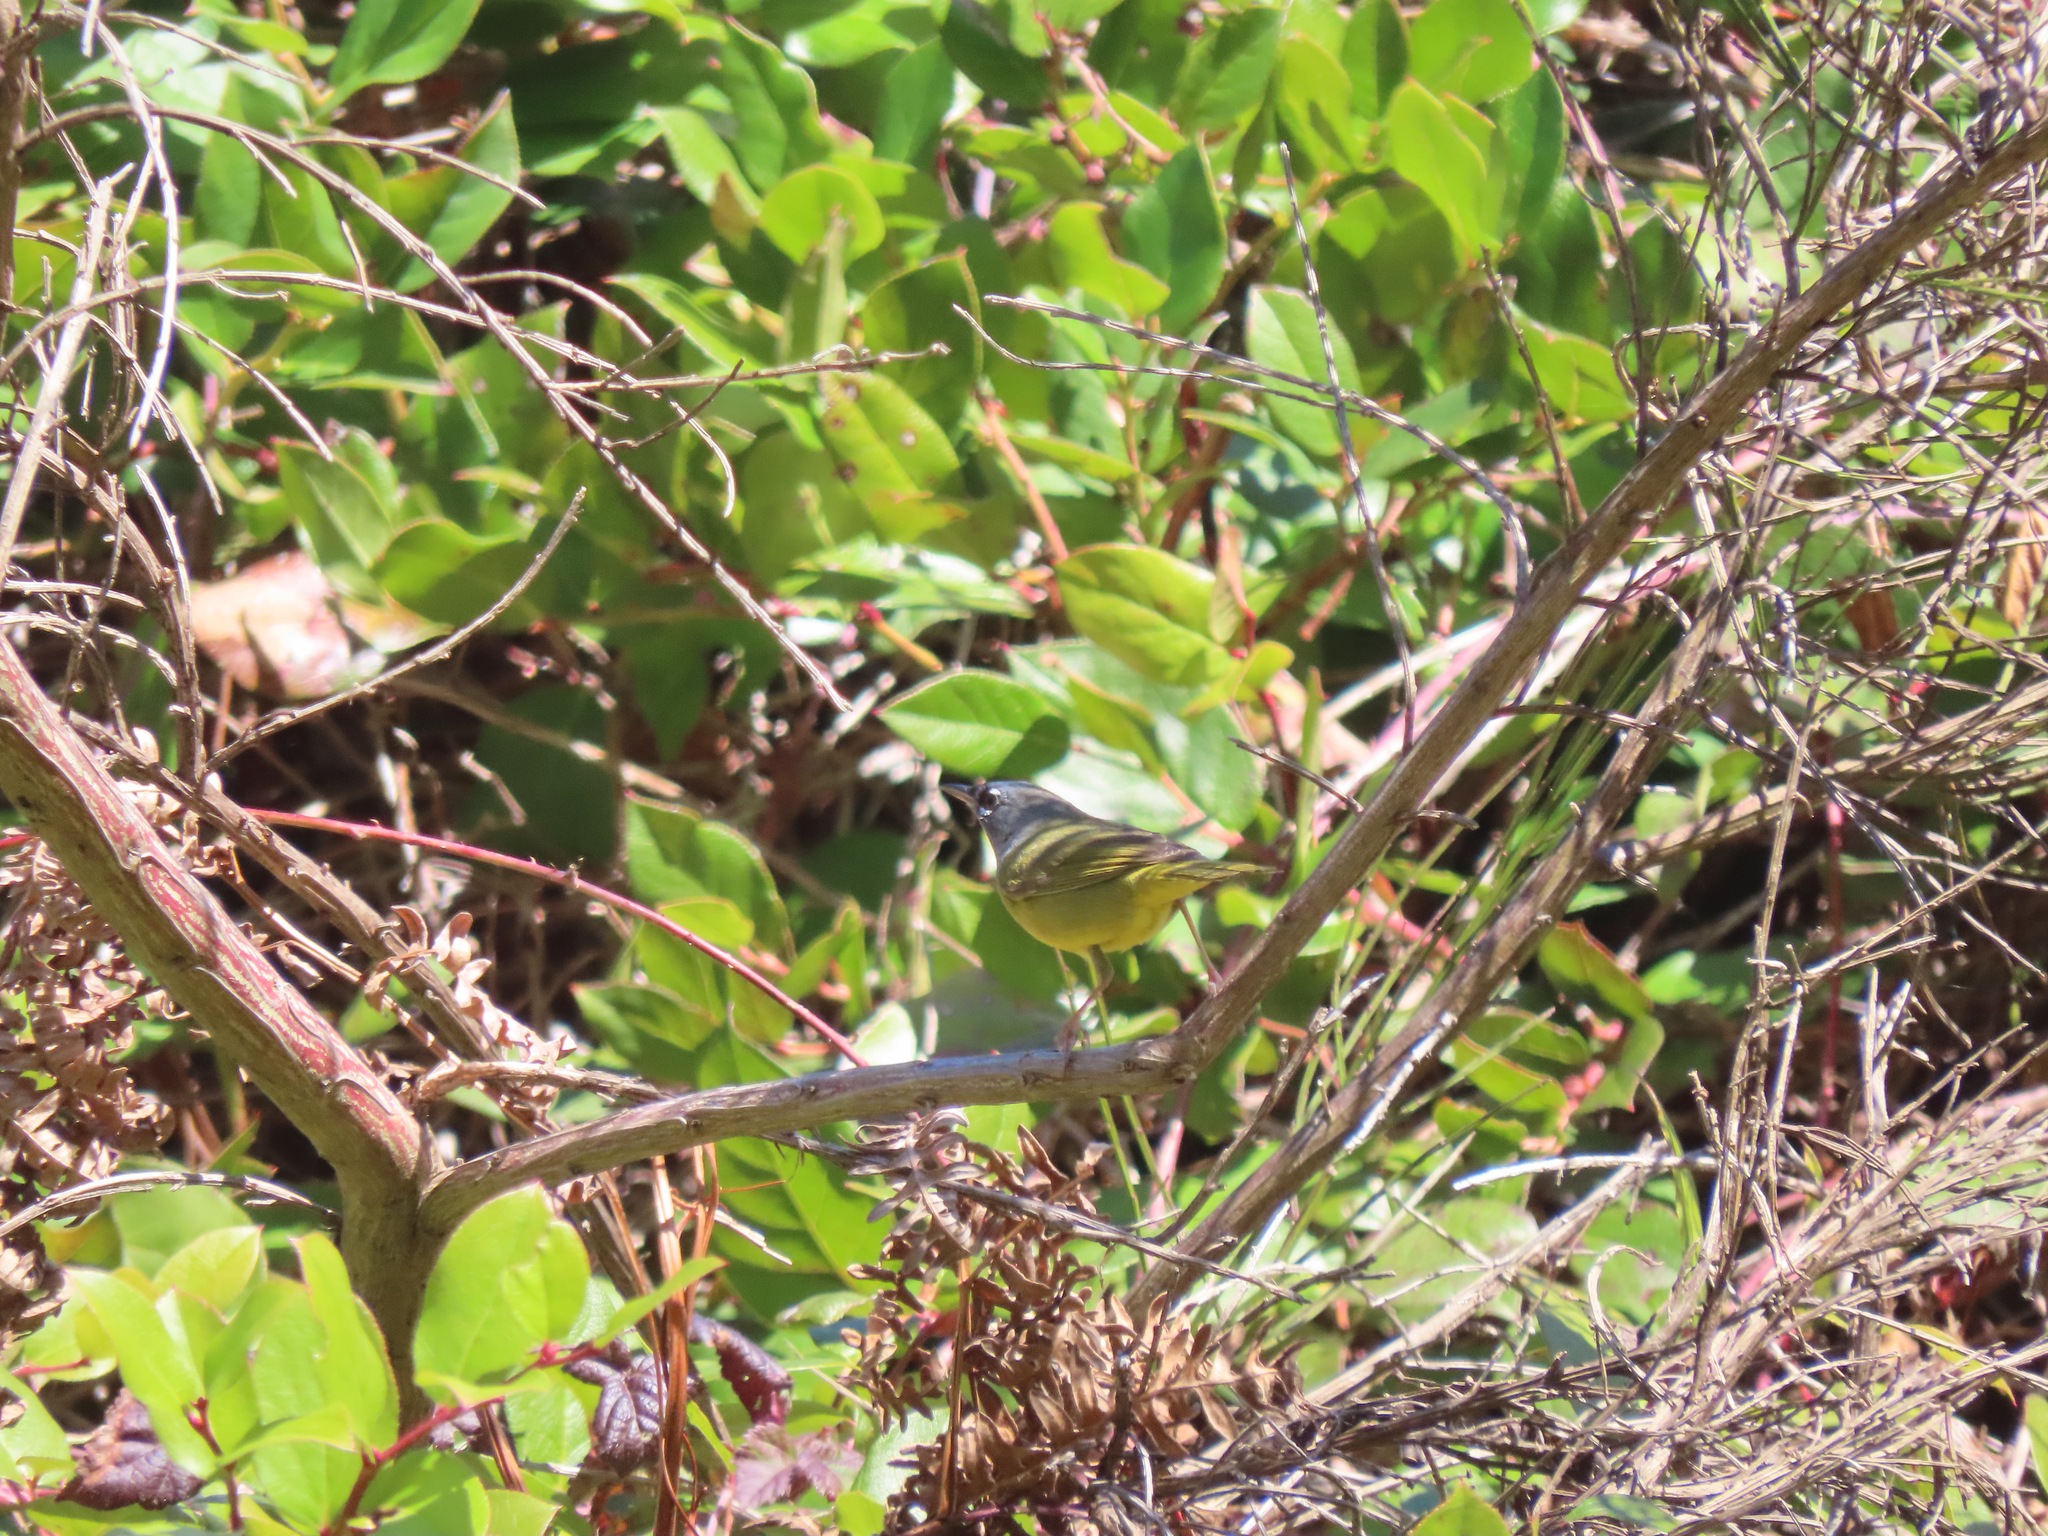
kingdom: Animalia
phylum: Chordata
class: Aves
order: Passeriformes
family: Parulidae
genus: Geothlypis
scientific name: Geothlypis tolmiei
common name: Macgillivray's warbler
